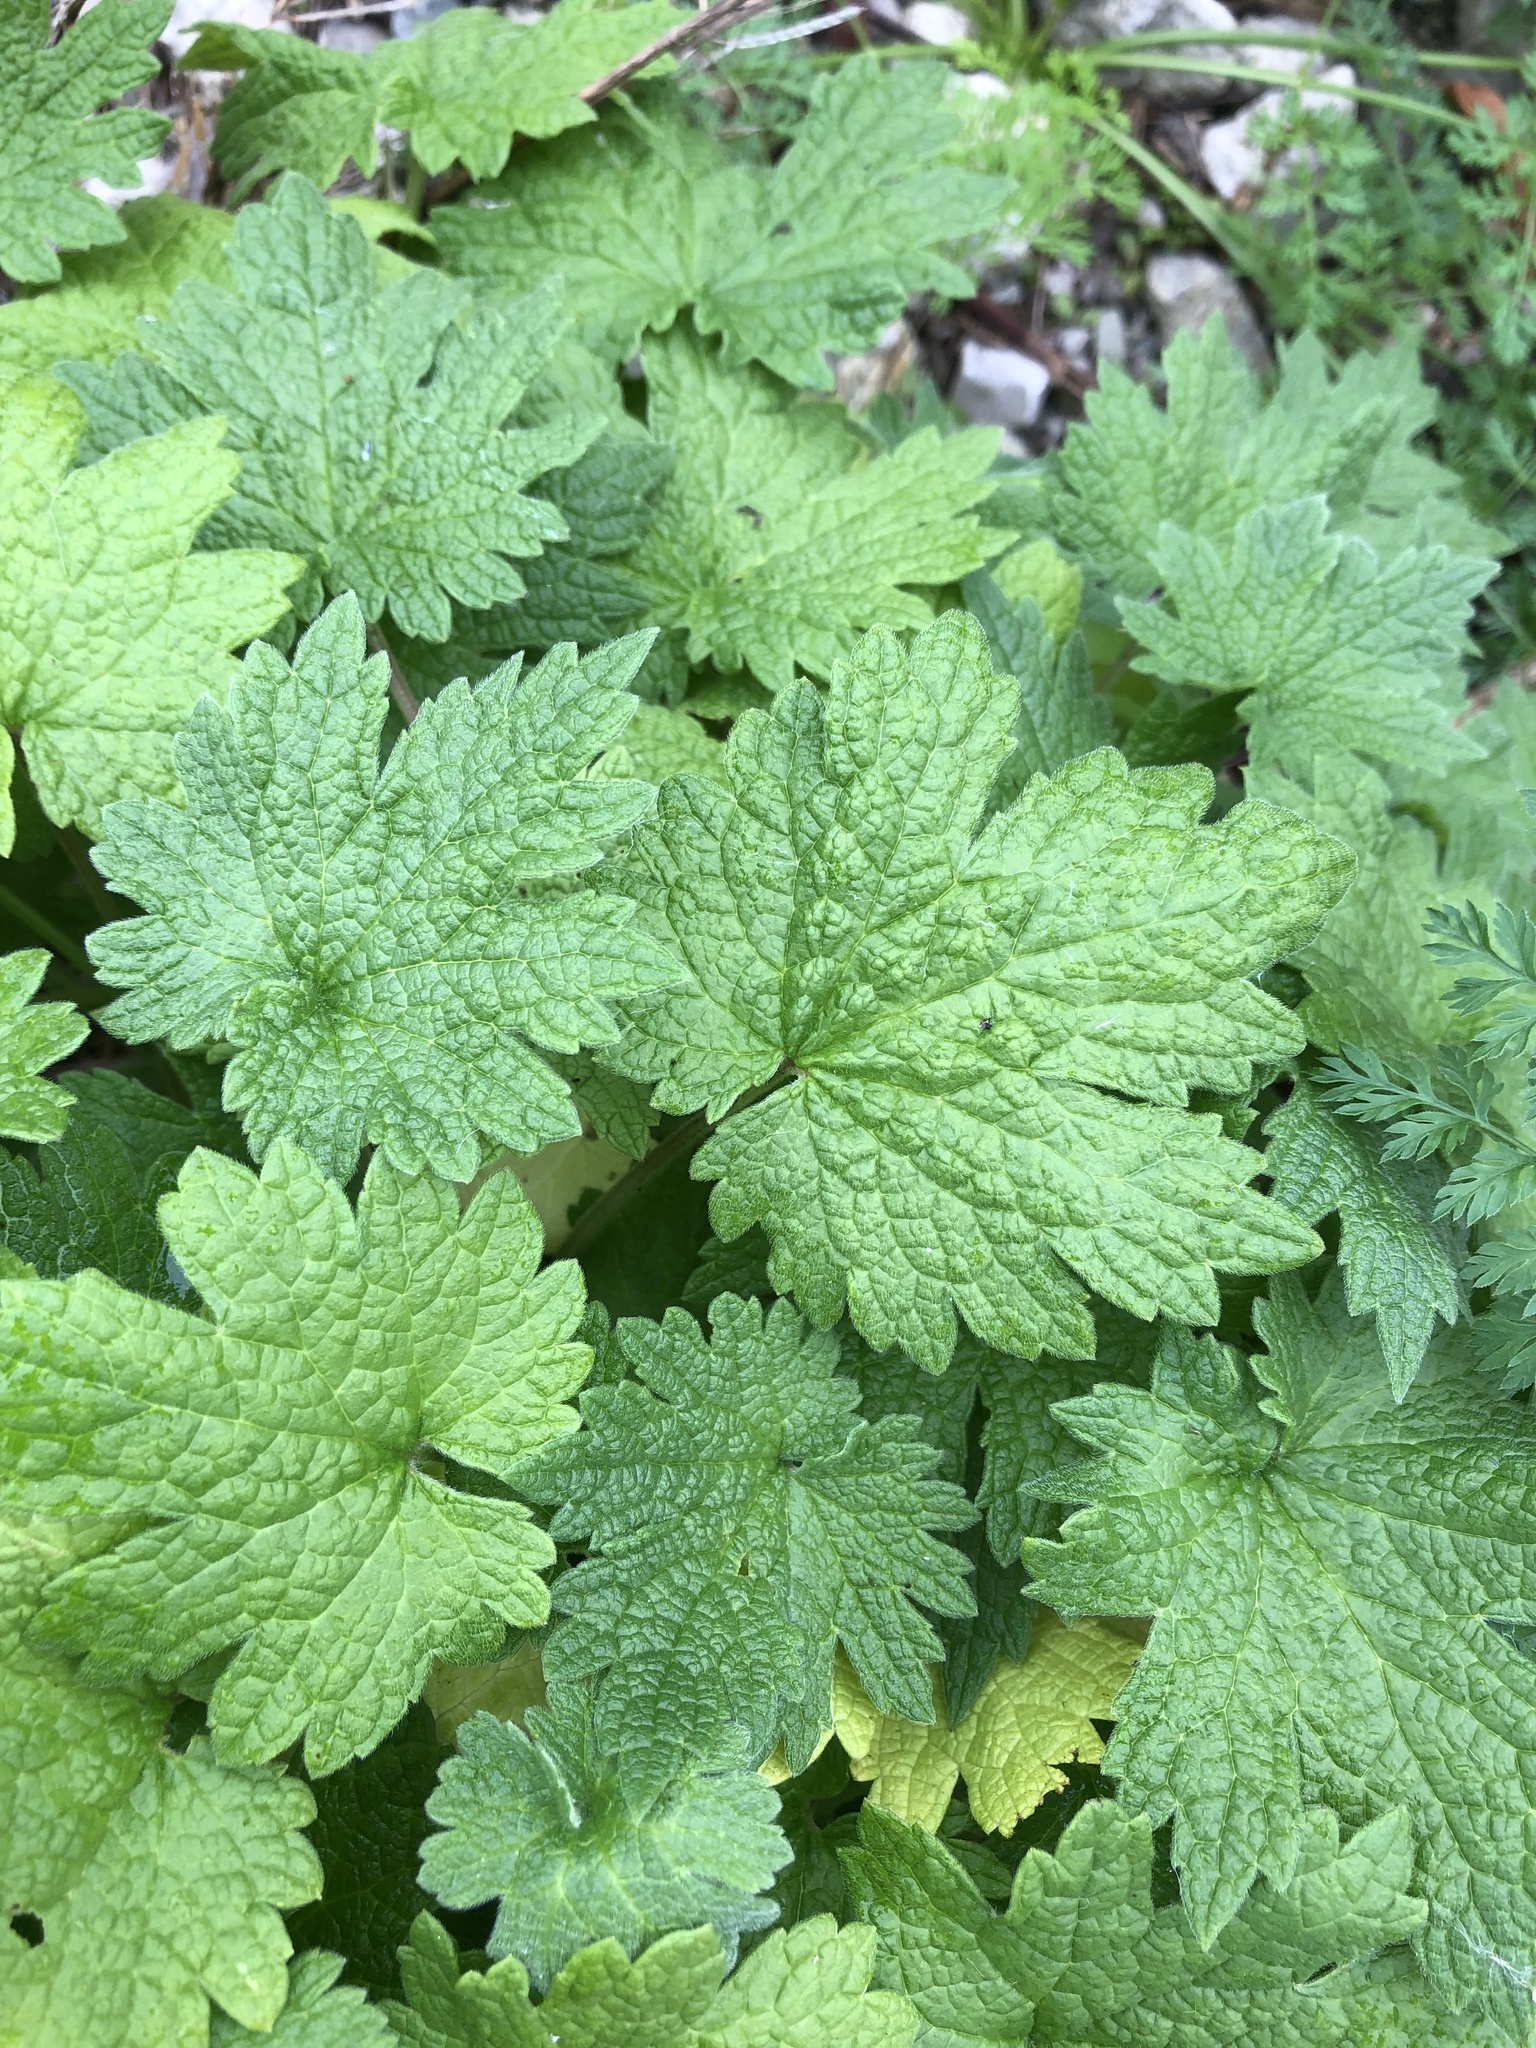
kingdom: Plantae
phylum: Tracheophyta
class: Magnoliopsida
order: Lamiales
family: Lamiaceae
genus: Leonurus
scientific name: Leonurus cardiaca
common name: Motherwort
